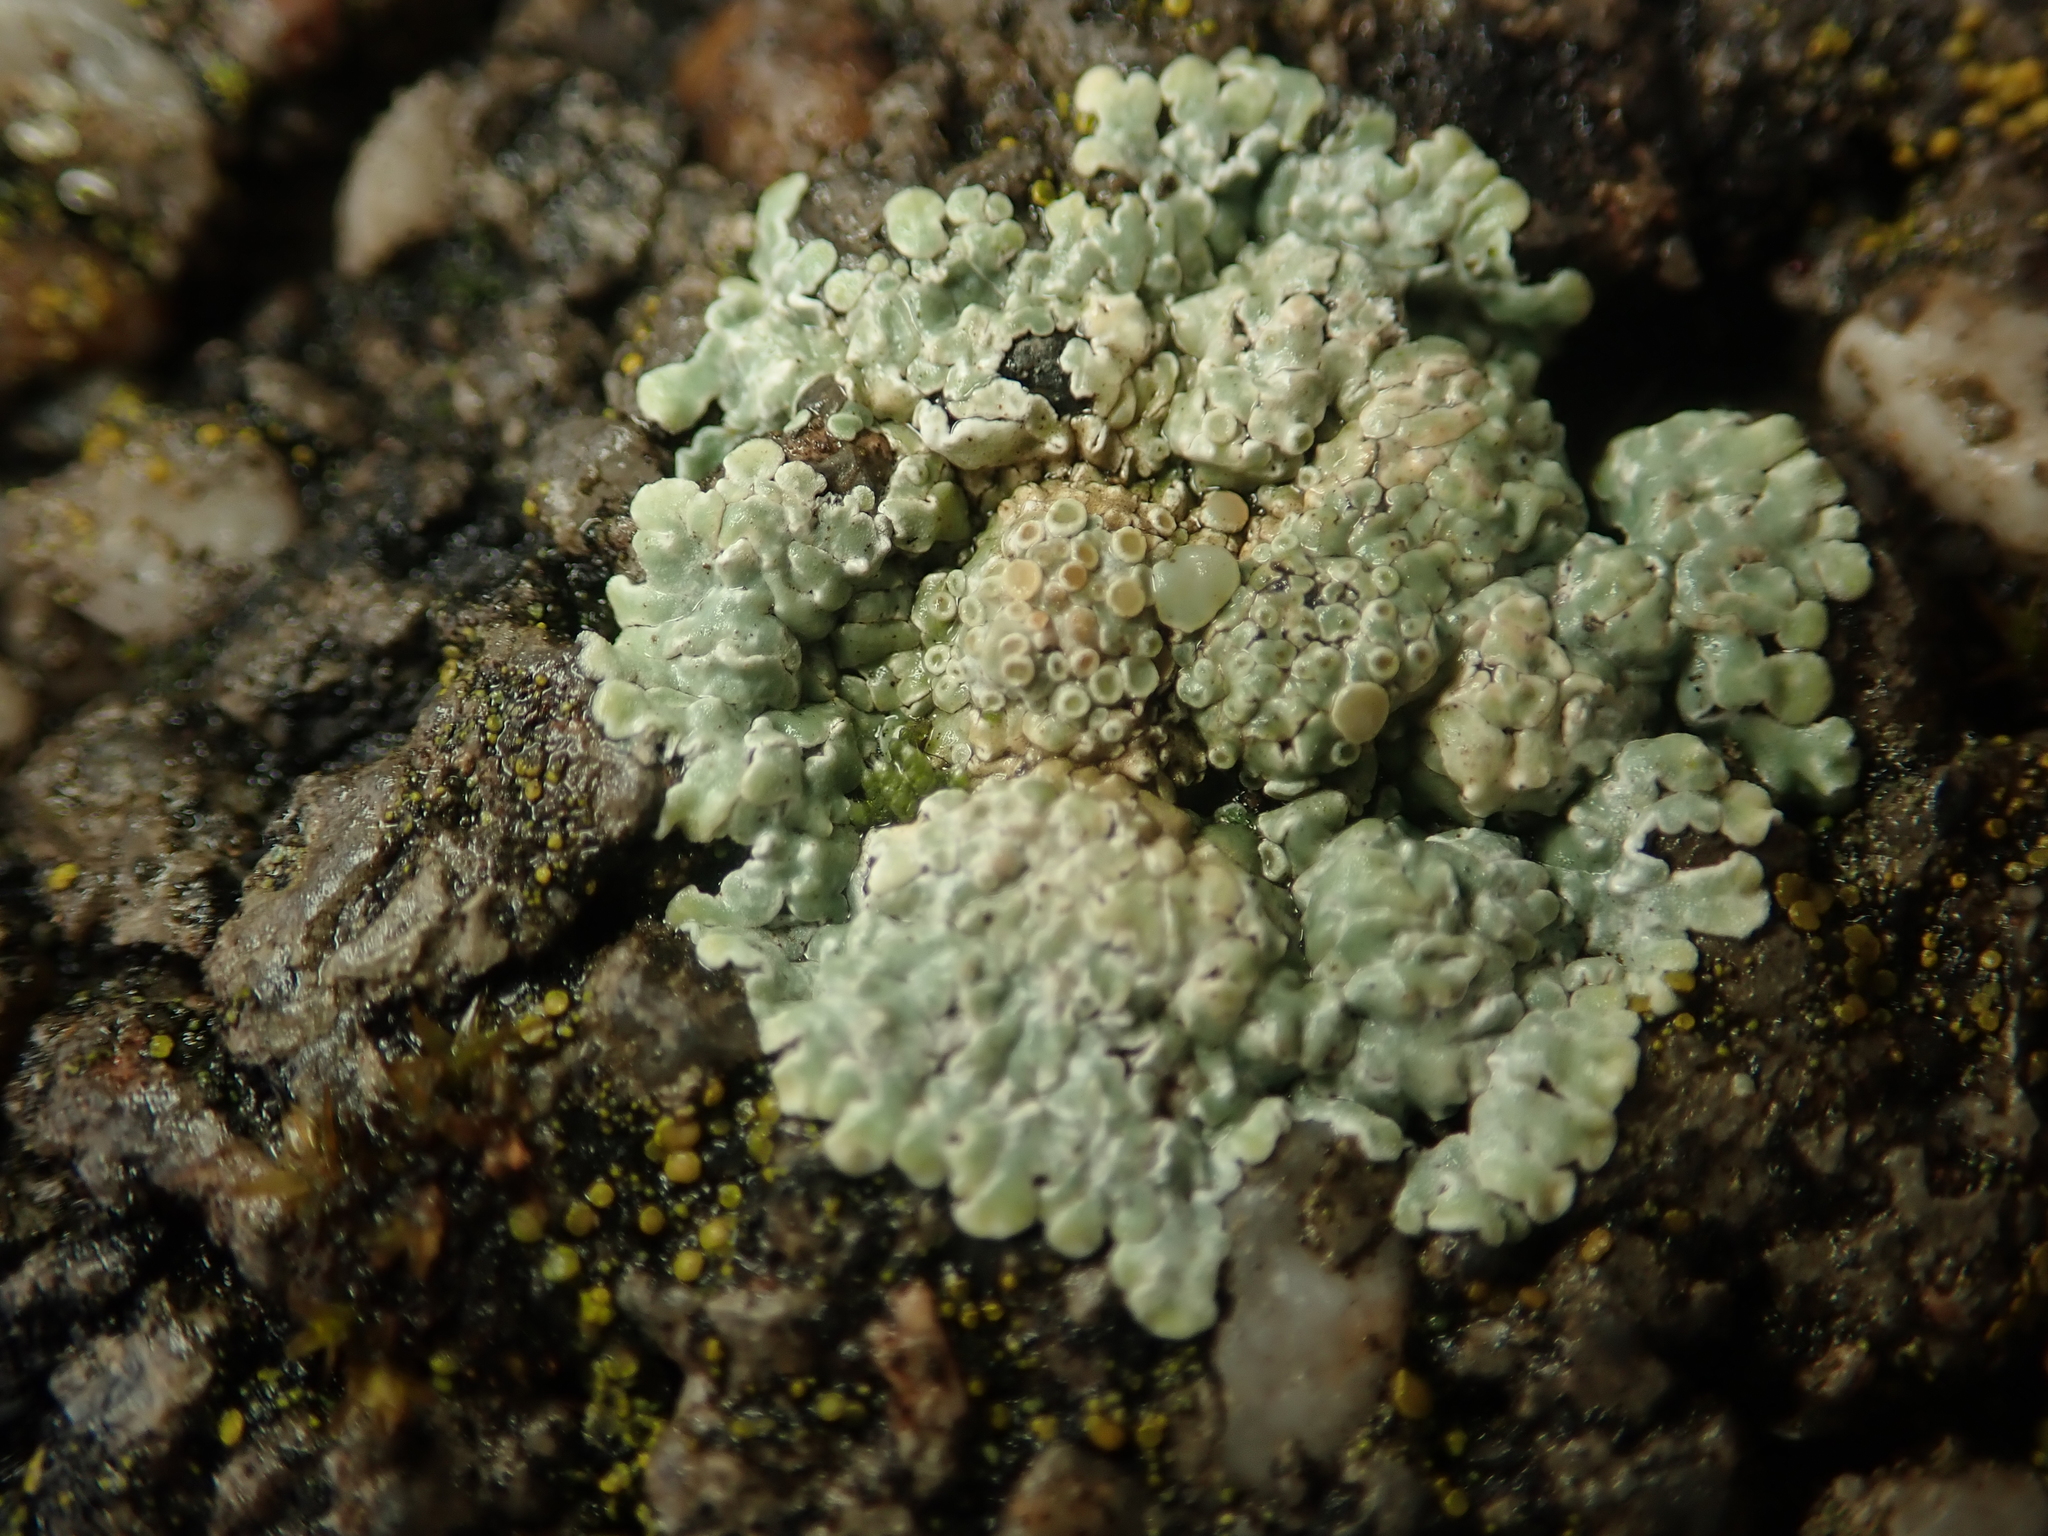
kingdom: Fungi
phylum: Ascomycota
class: Lecanoromycetes
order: Lecanorales
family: Lecanoraceae
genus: Protoparmeliopsis
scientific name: Protoparmeliopsis muralis
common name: Stonewall rim lichen
